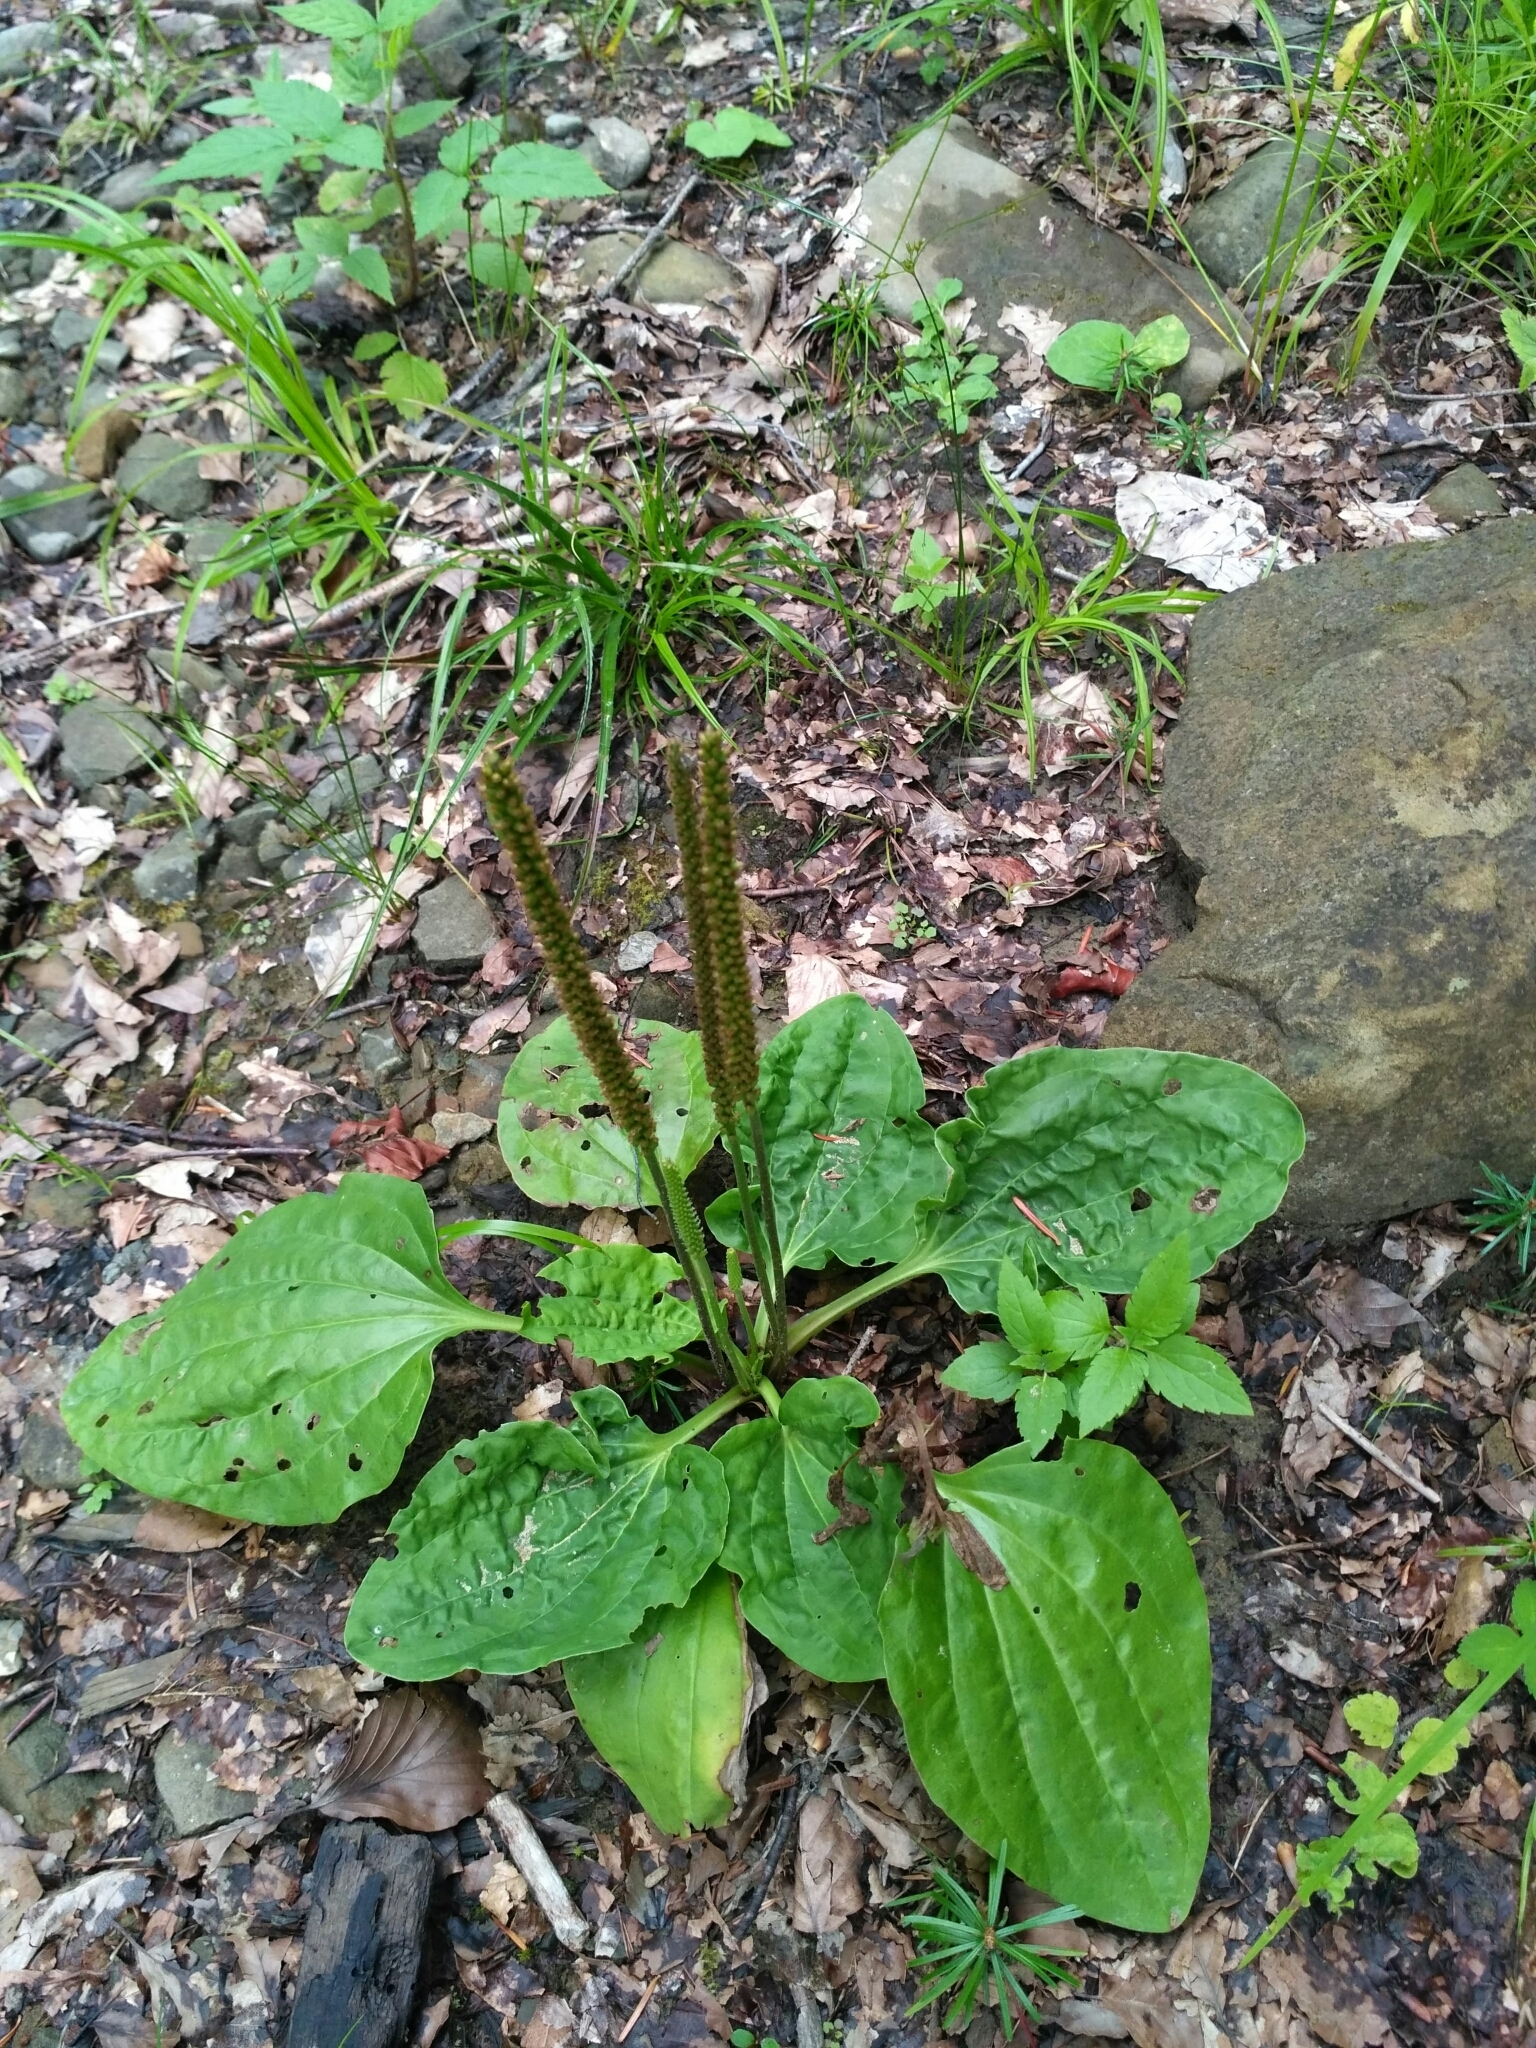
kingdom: Plantae
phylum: Tracheophyta
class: Magnoliopsida
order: Lamiales
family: Plantaginaceae
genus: Plantago
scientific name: Plantago major
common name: Common plantain
